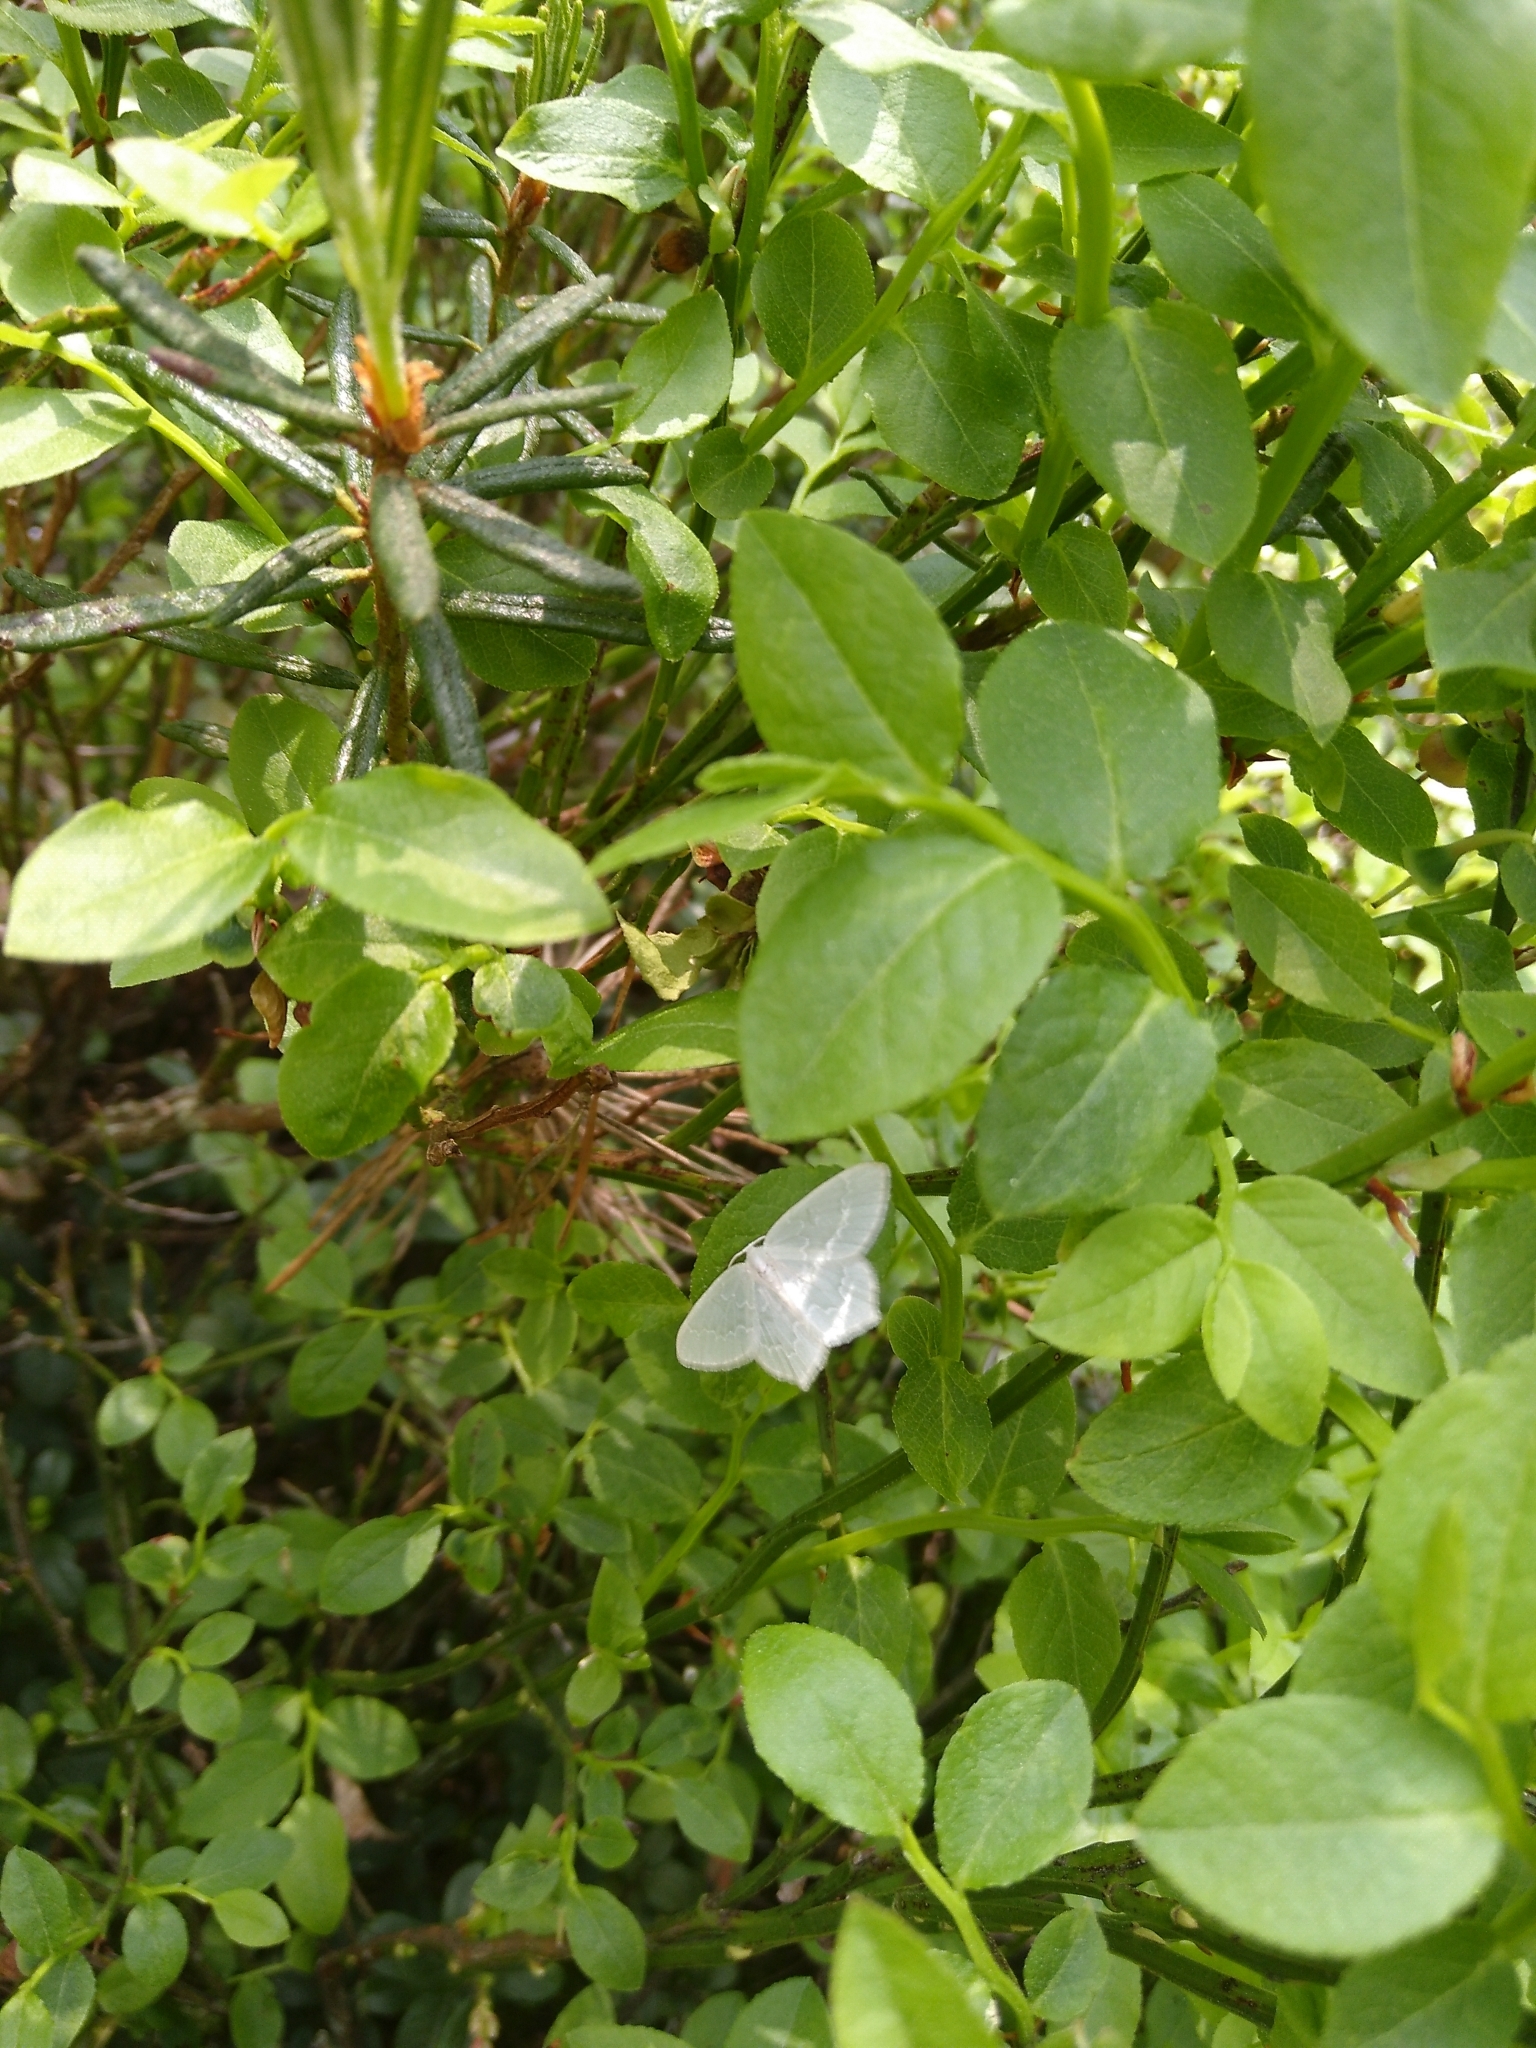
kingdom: Animalia
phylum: Arthropoda
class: Insecta
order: Lepidoptera
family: Geometridae
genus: Jodis
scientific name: Jodis putata
